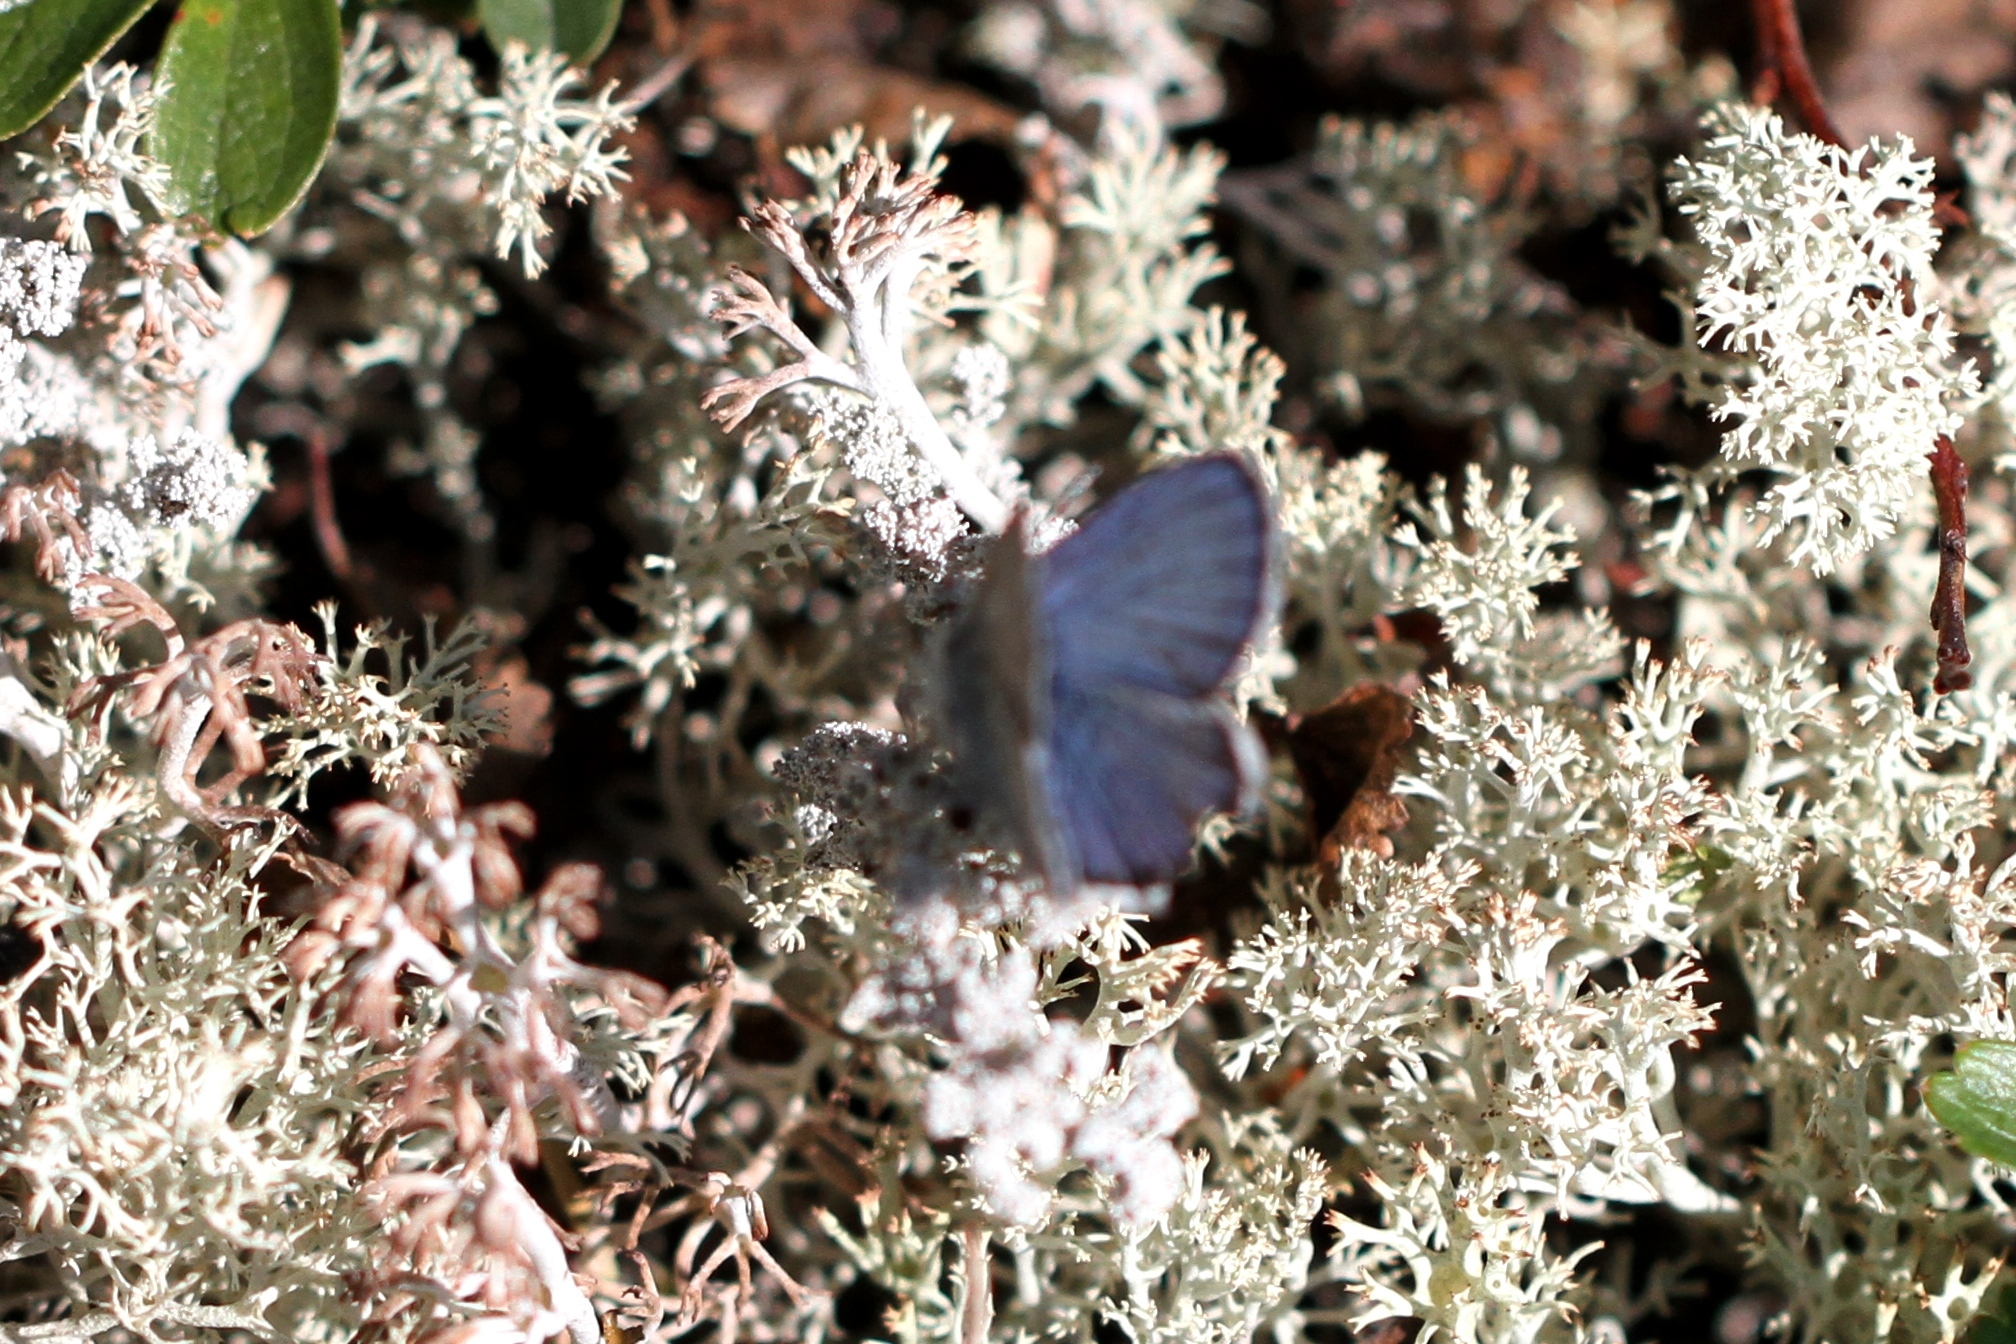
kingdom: Animalia
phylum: Arthropoda
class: Insecta
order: Lepidoptera
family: Lycaenidae
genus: Lycaeides
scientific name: Lycaeides idas
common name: Northern blue
